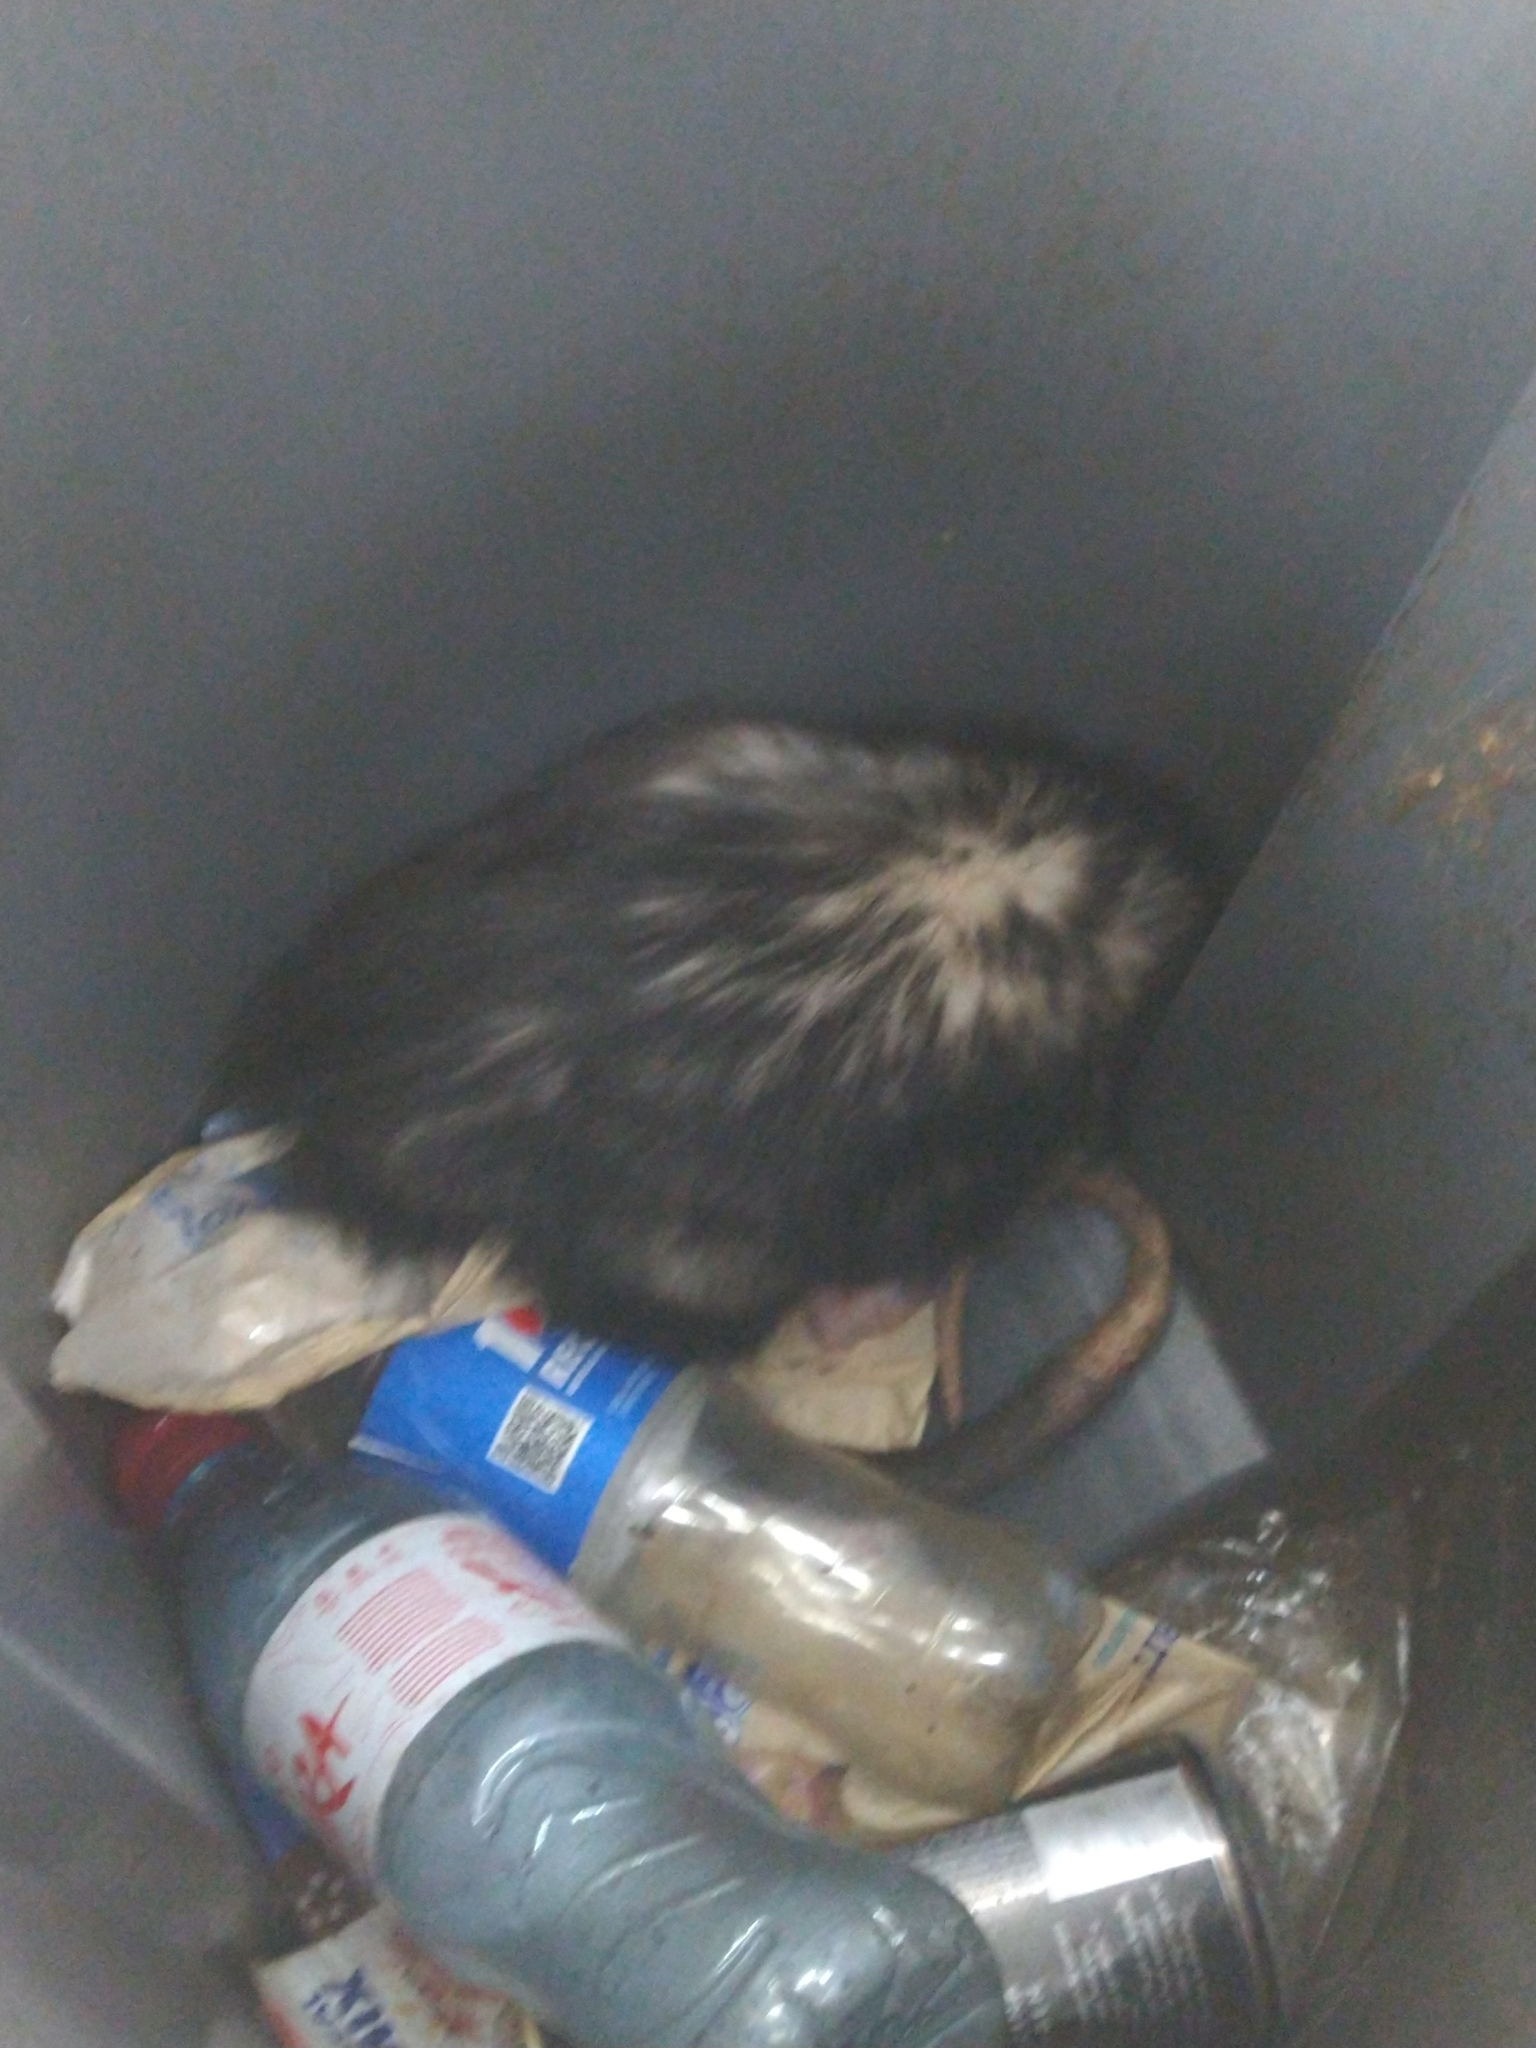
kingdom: Animalia
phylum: Chordata
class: Mammalia
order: Didelphimorphia
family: Didelphidae
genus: Didelphis
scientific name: Didelphis albiventris
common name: White-eared opossum
